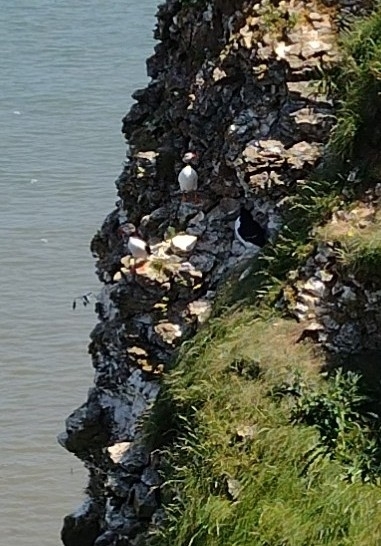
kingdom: Animalia
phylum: Chordata
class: Aves
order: Charadriiformes
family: Alcidae
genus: Fratercula
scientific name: Fratercula arctica
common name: Atlantic puffin
